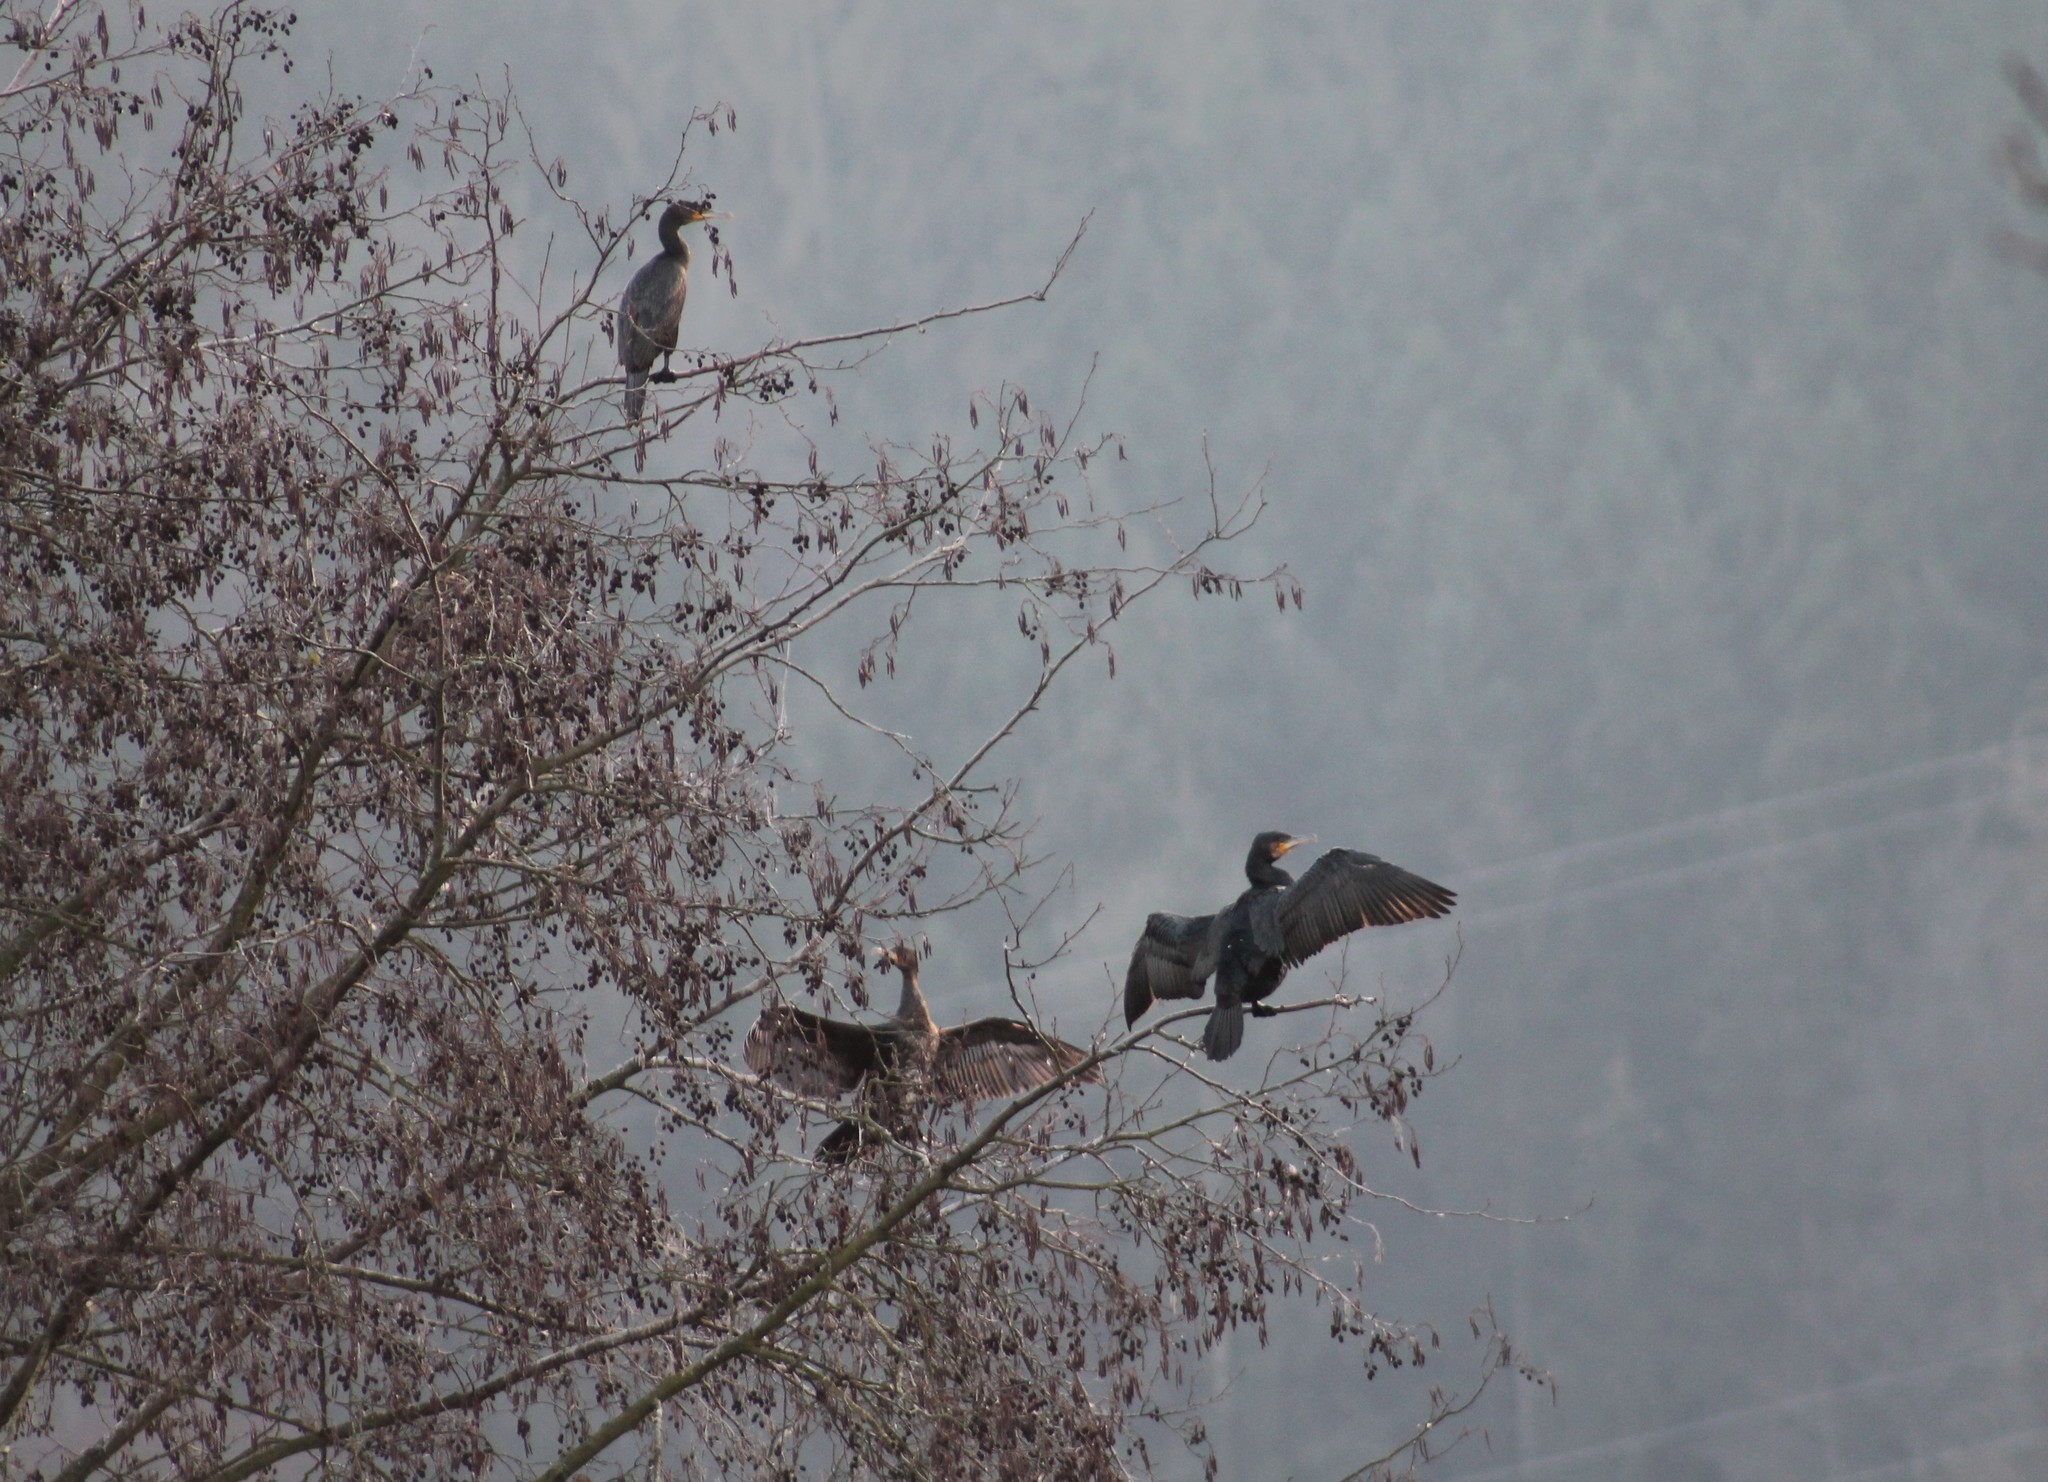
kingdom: Animalia
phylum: Chordata
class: Aves
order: Suliformes
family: Phalacrocoracidae
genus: Phalacrocorax
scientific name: Phalacrocorax carbo
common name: Great cormorant
